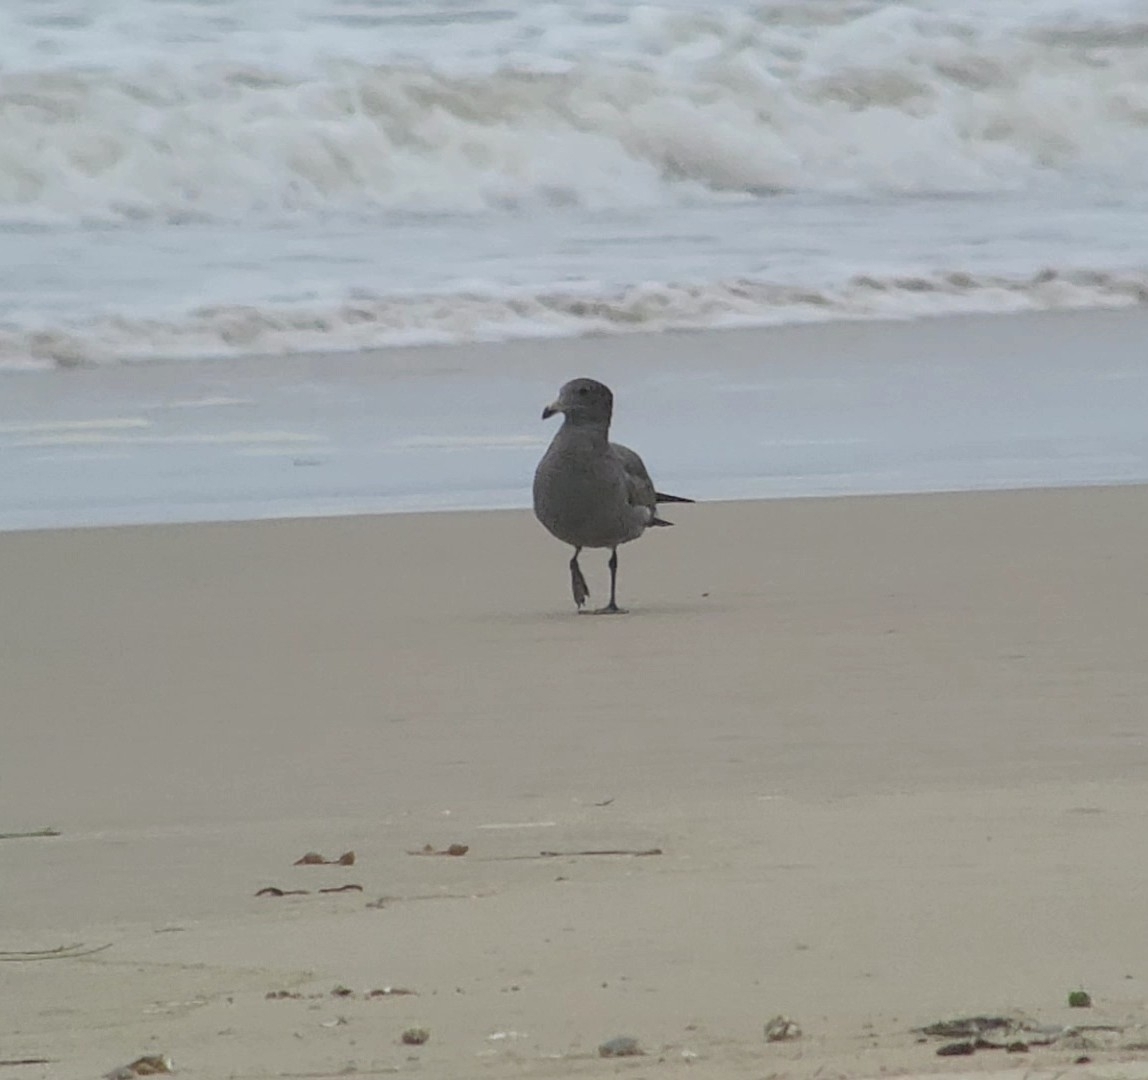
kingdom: Animalia
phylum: Chordata
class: Aves
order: Charadriiformes
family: Laridae
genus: Larus
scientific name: Larus heermanni
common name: Heermann's gull
